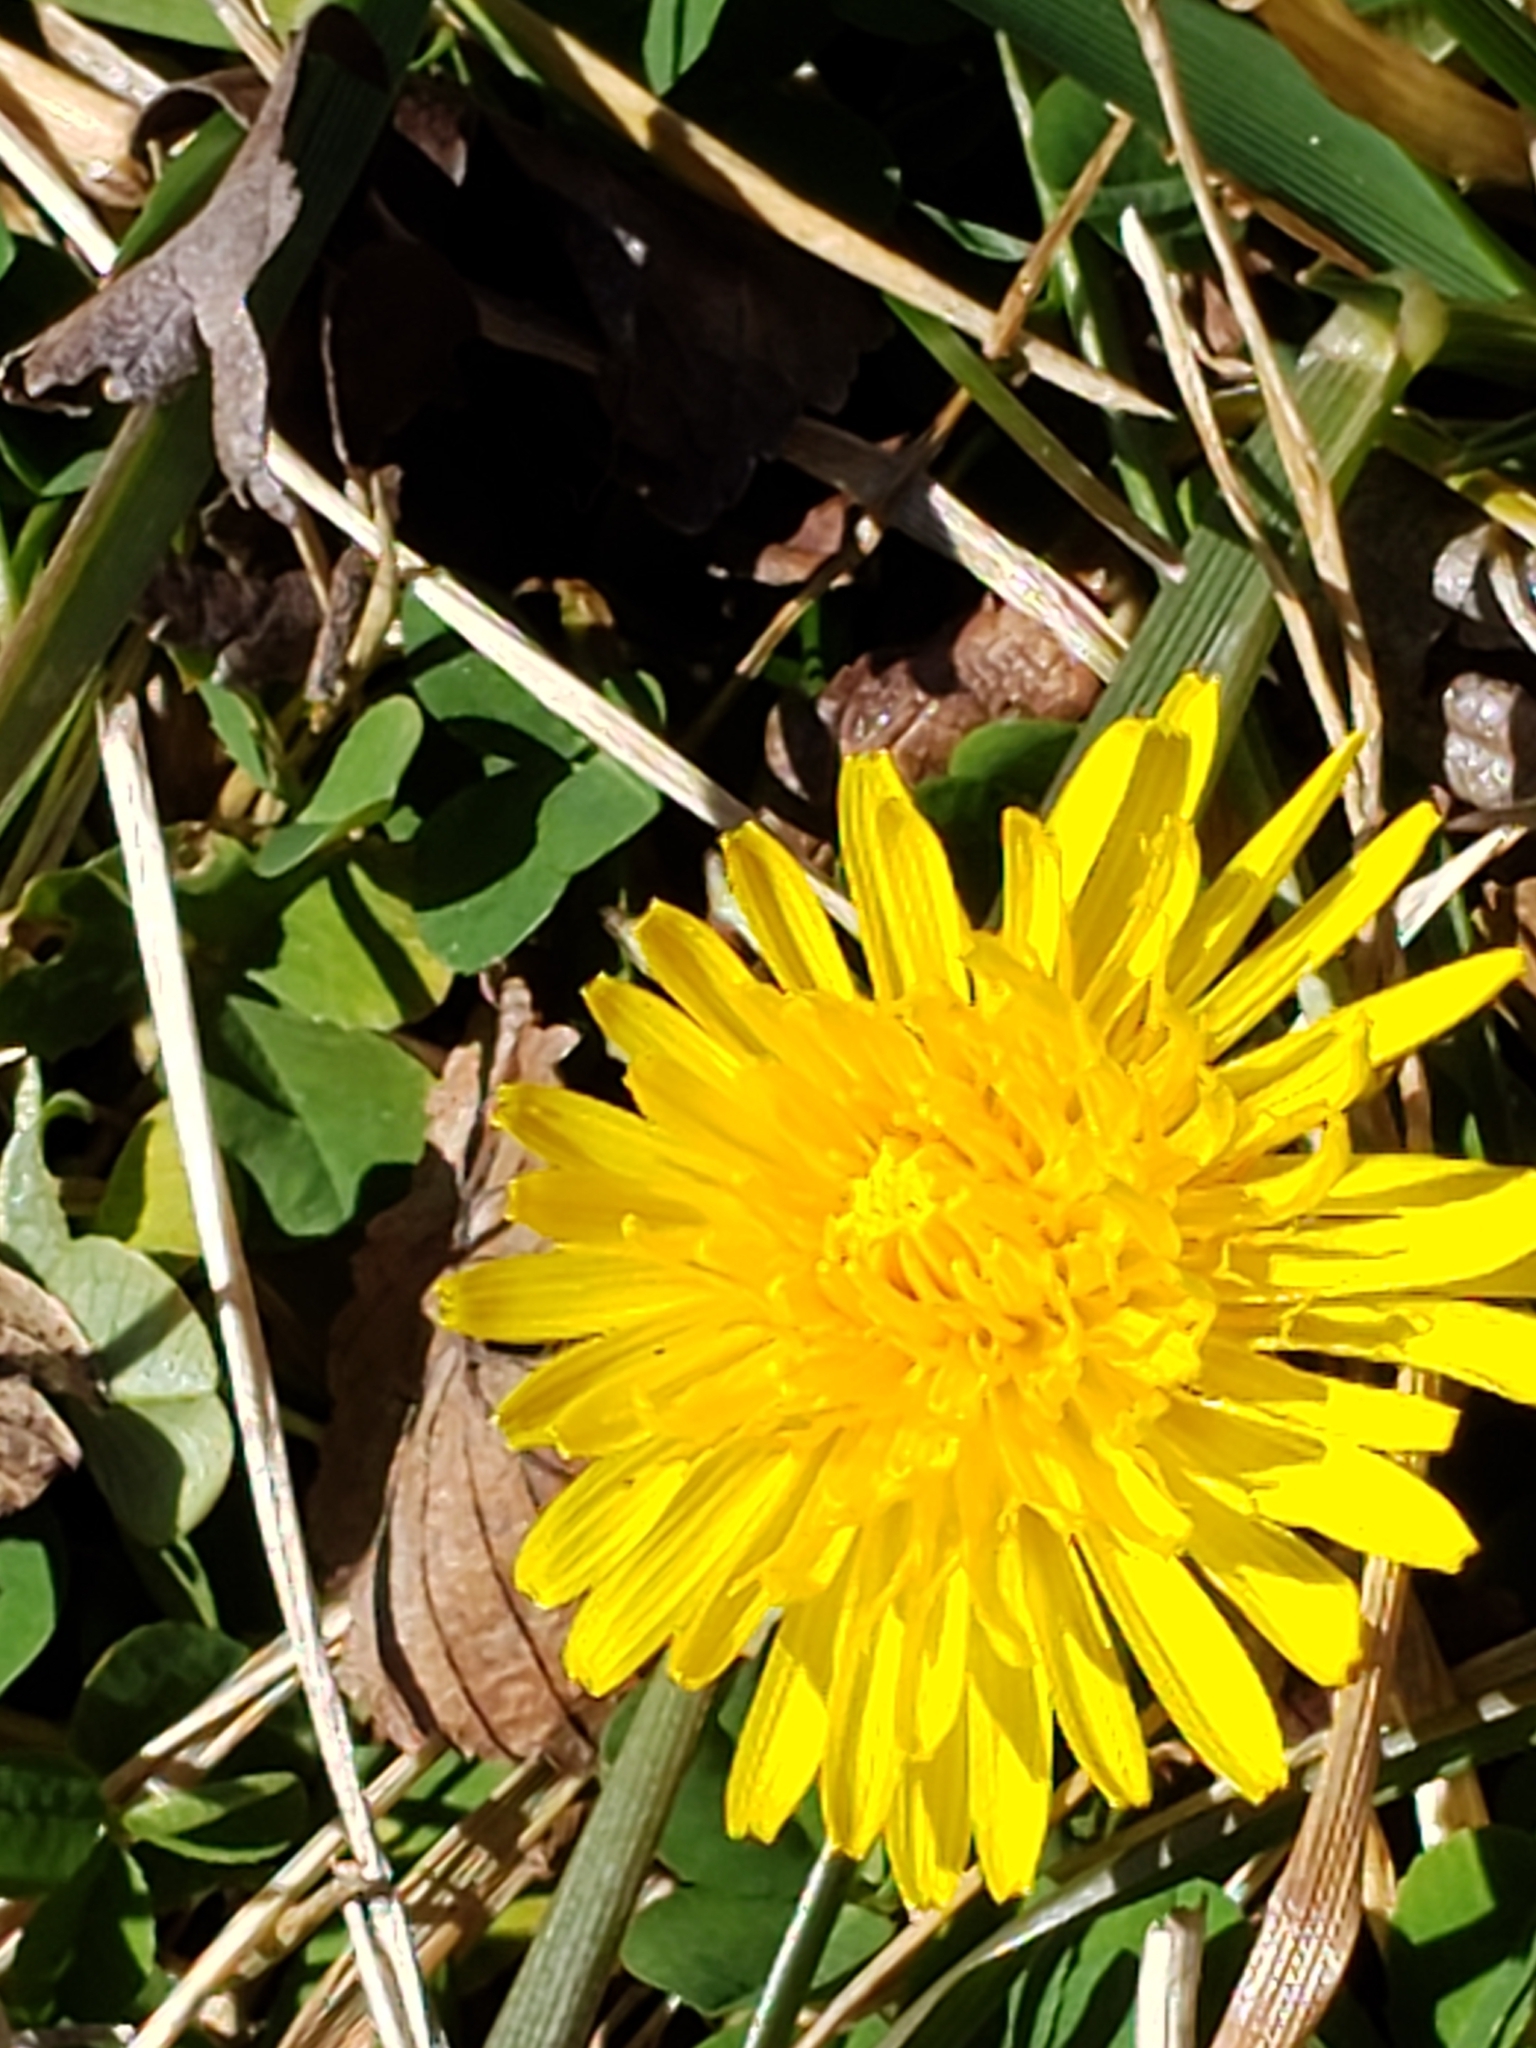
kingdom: Plantae
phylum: Tracheophyta
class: Magnoliopsida
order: Asterales
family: Asteraceae
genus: Taraxacum
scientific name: Taraxacum officinale
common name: Common dandelion
